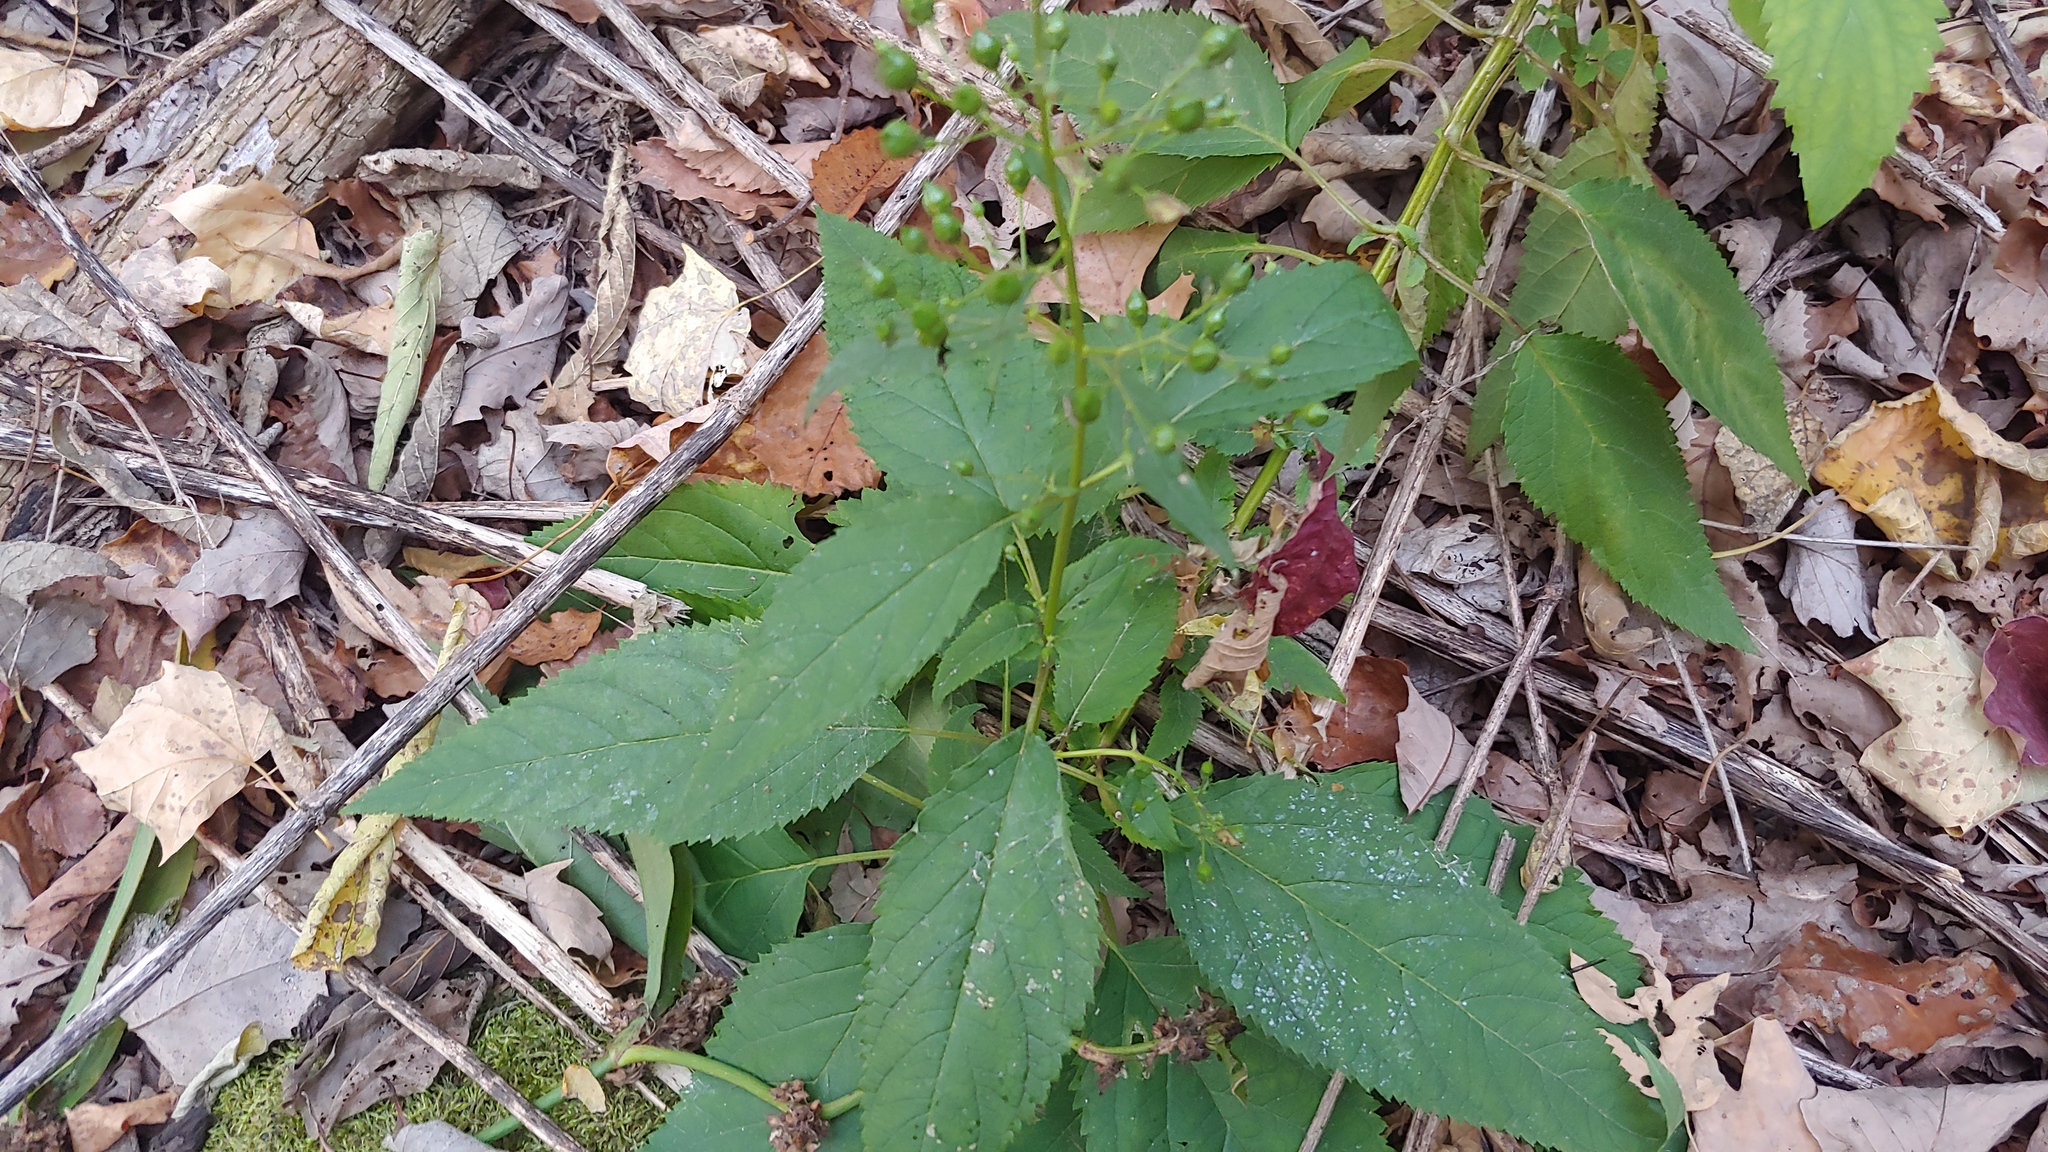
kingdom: Plantae
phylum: Tracheophyta
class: Magnoliopsida
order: Lamiales
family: Scrophulariaceae
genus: Scrophularia
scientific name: Scrophularia marilandica
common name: Eastern figwort
